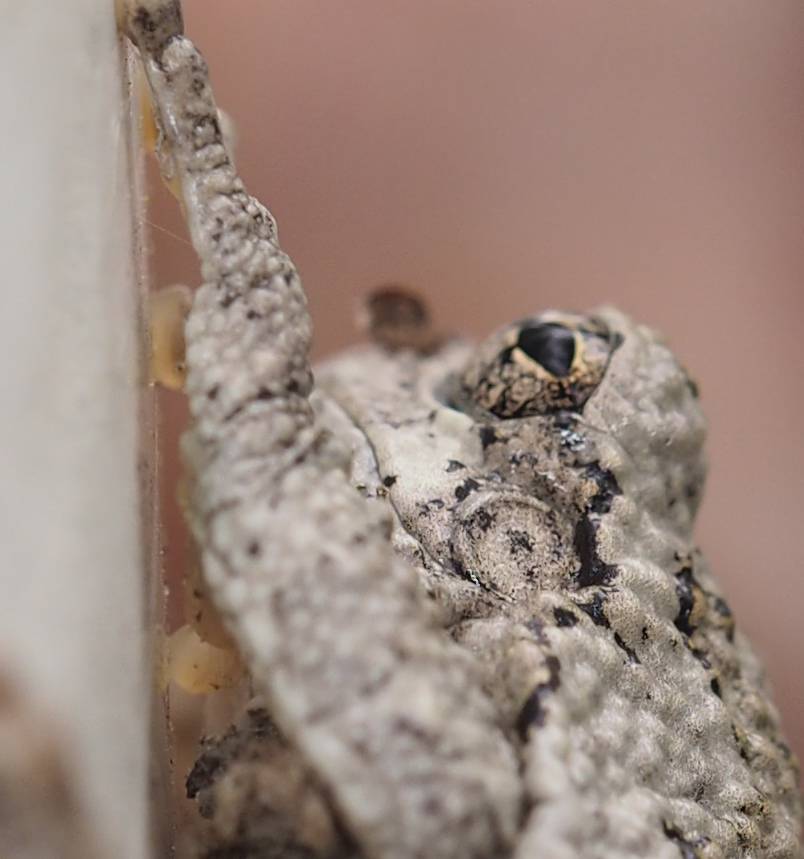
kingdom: Animalia
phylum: Chordata
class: Amphibia
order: Anura
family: Hylidae
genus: Dryophytes
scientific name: Dryophytes chrysoscelis
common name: Cope's gray treefrog
